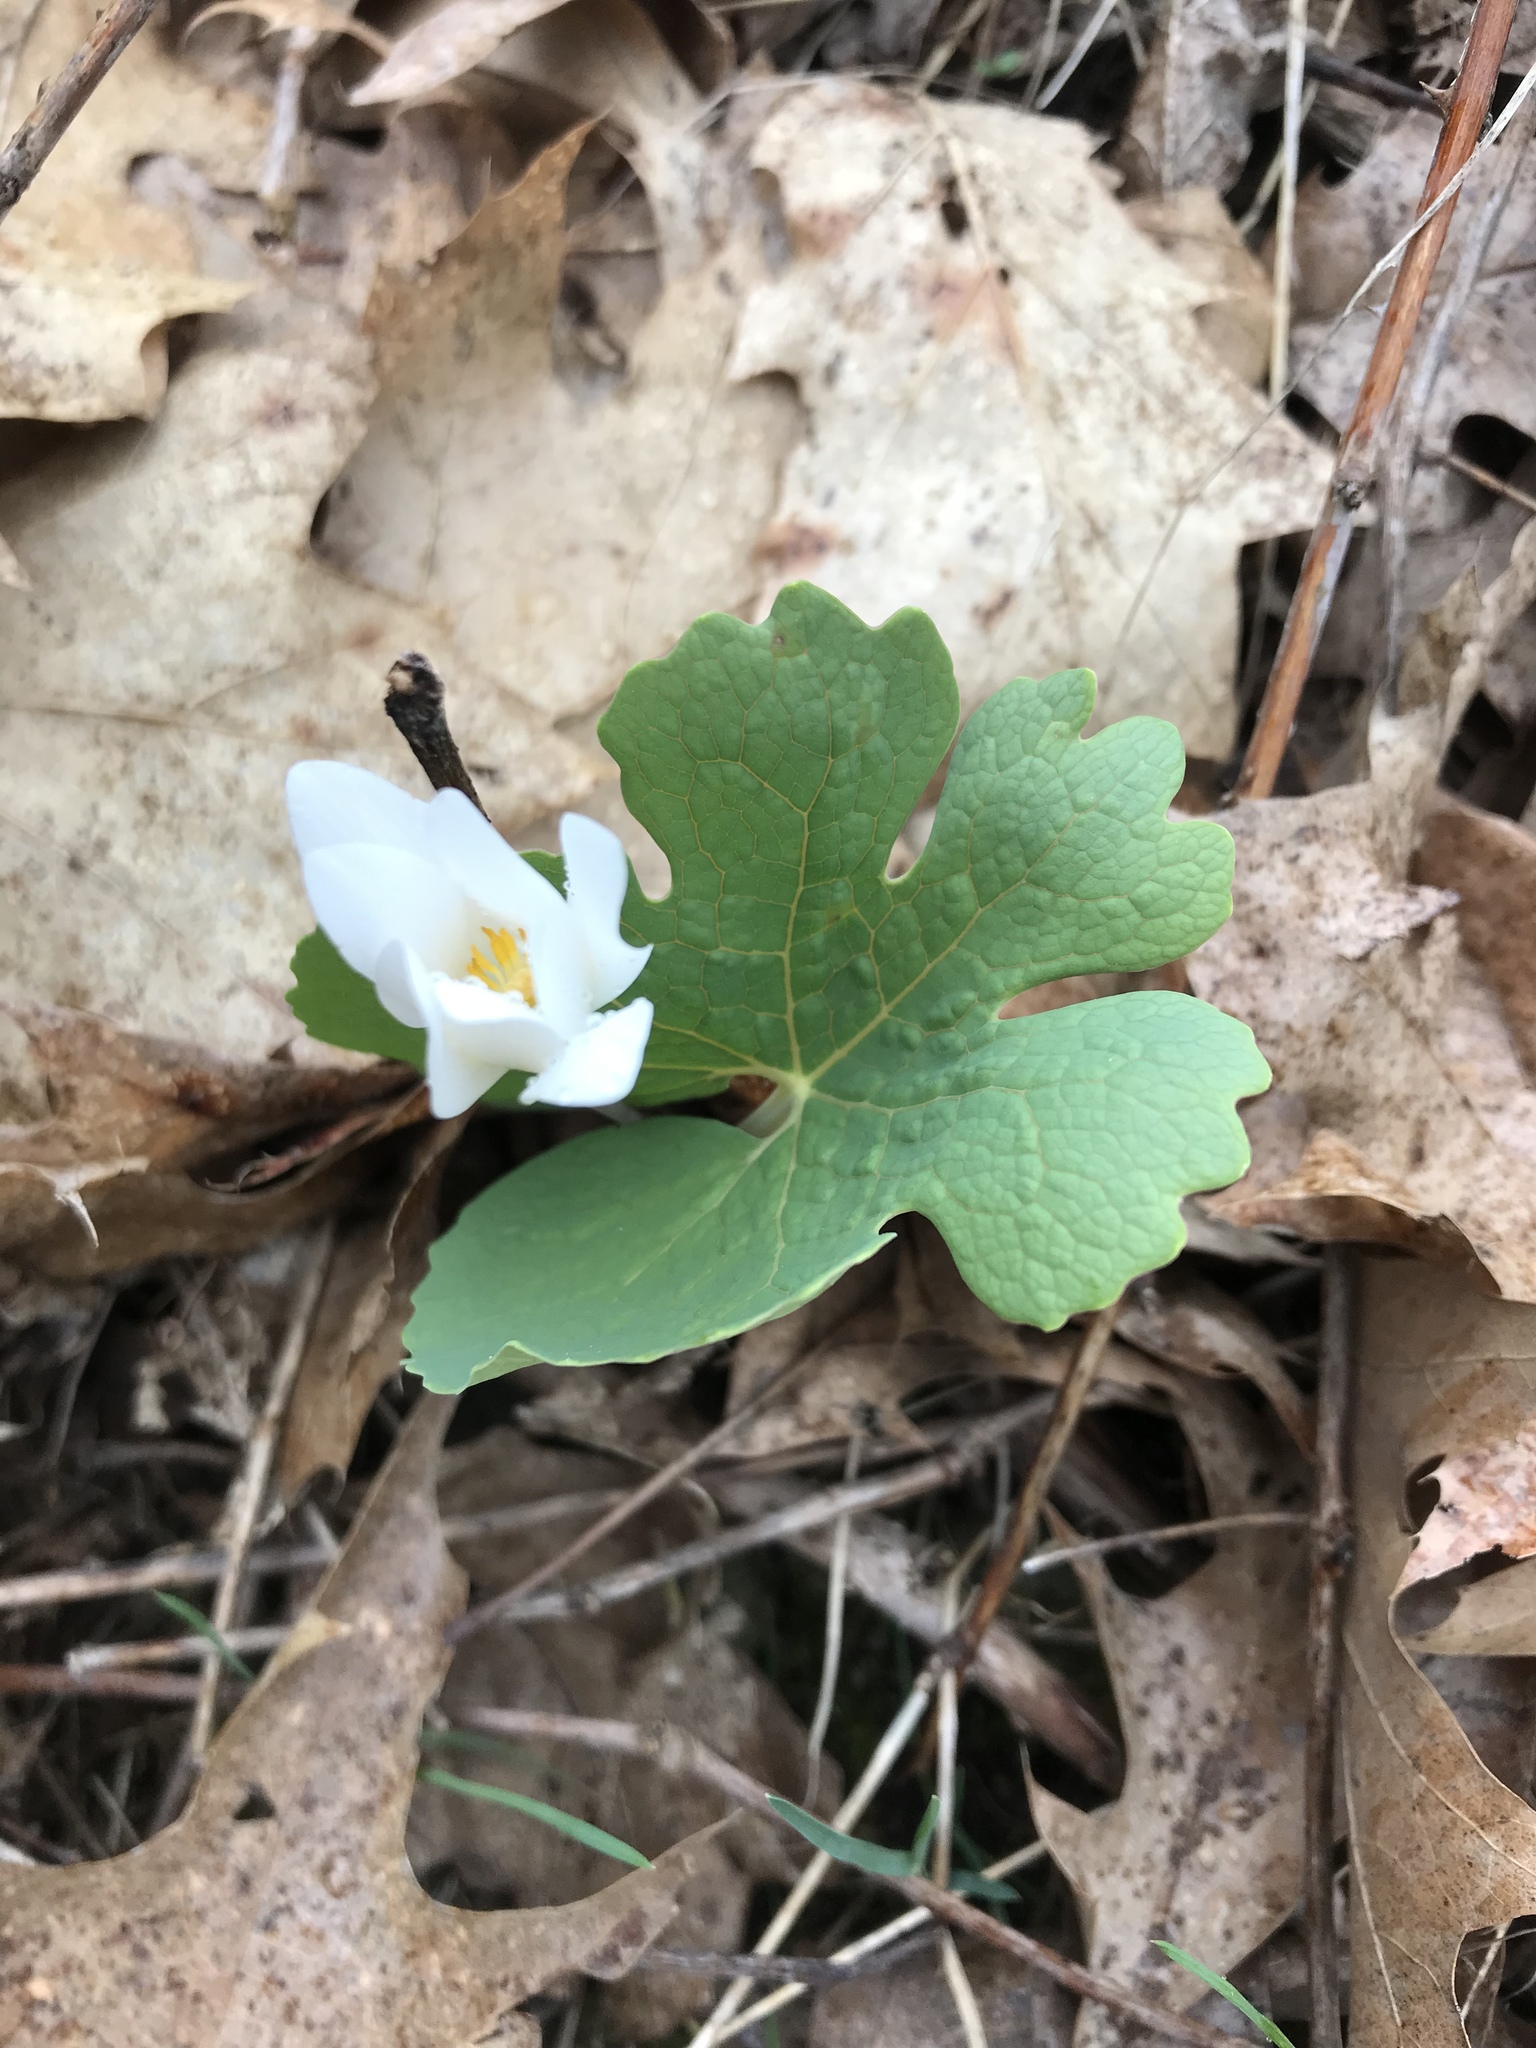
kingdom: Plantae
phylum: Tracheophyta
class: Magnoliopsida
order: Ranunculales
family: Papaveraceae
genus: Sanguinaria
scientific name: Sanguinaria canadensis
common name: Bloodroot
